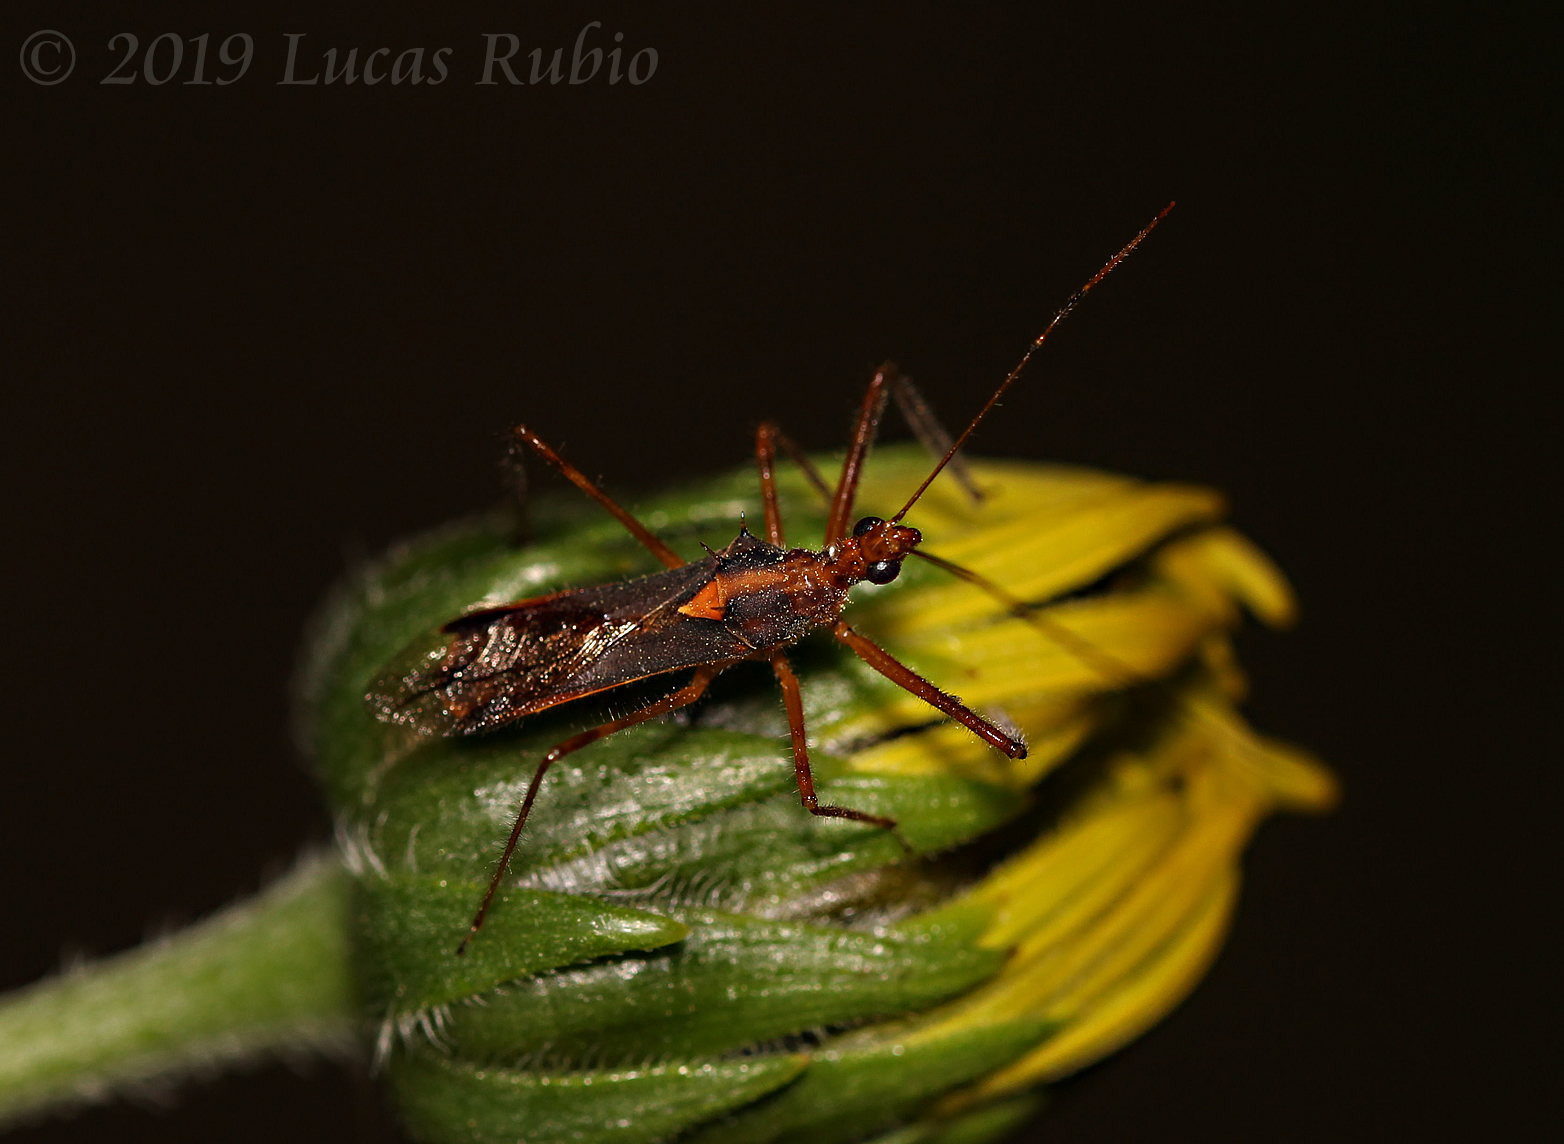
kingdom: Animalia
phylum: Arthropoda
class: Insecta
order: Hemiptera
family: Reduviidae
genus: Repipta
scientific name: Repipta flavicans
